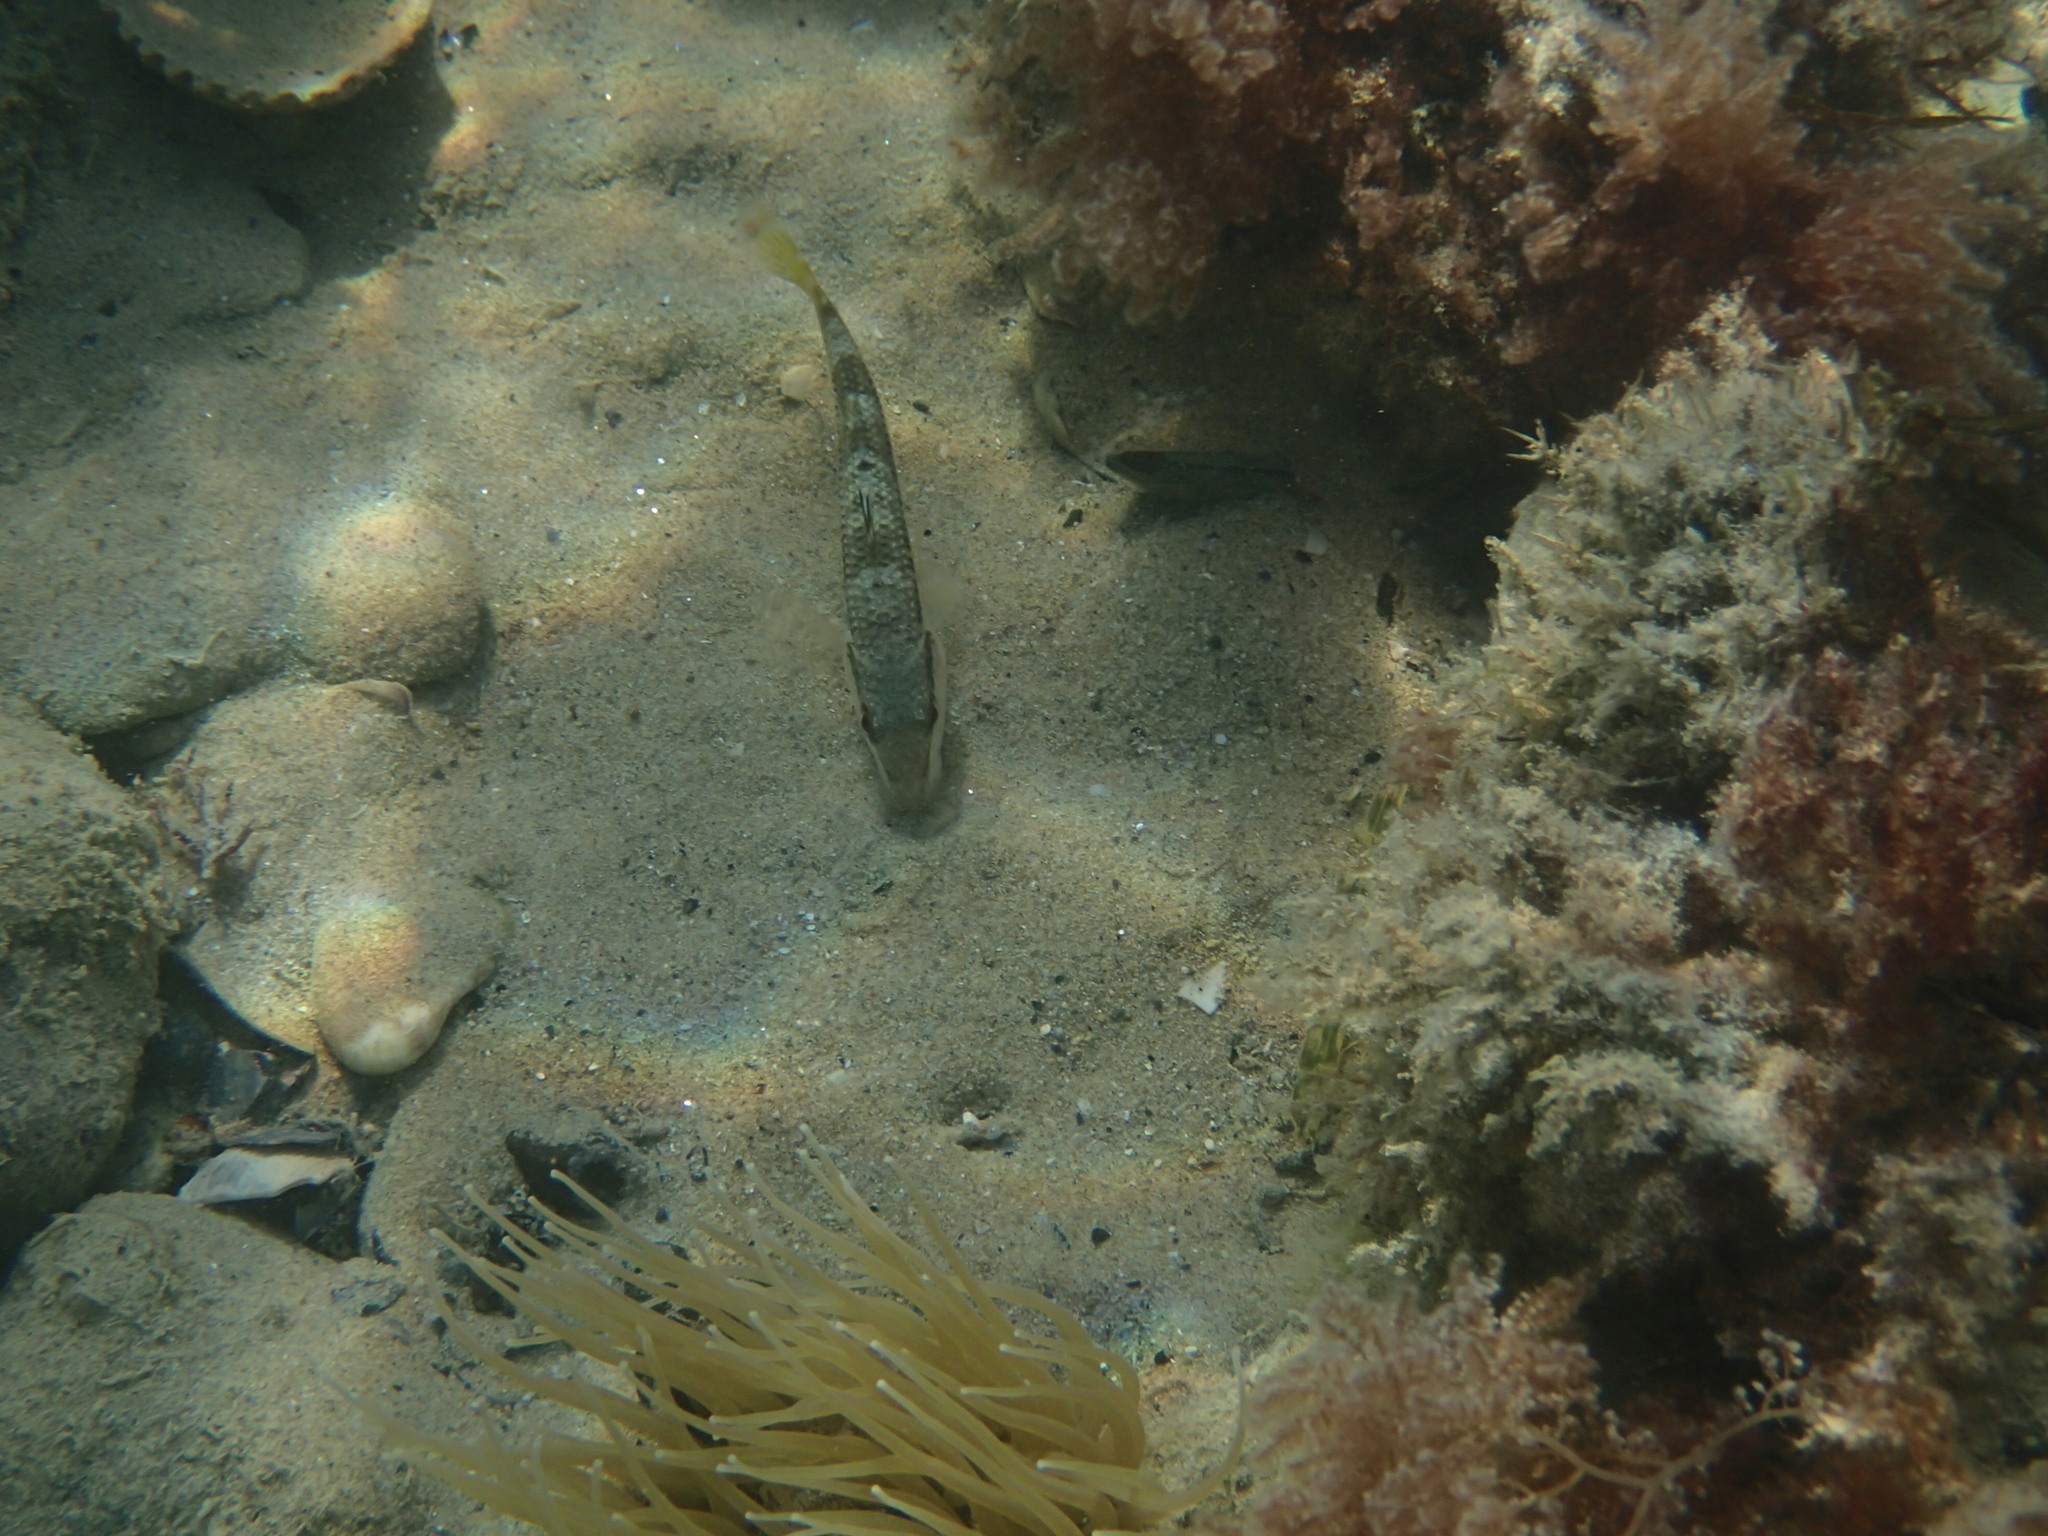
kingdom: Animalia
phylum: Chordata
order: Perciformes
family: Mullidae
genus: Mullus
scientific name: Mullus surmuletus
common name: Red mullet
